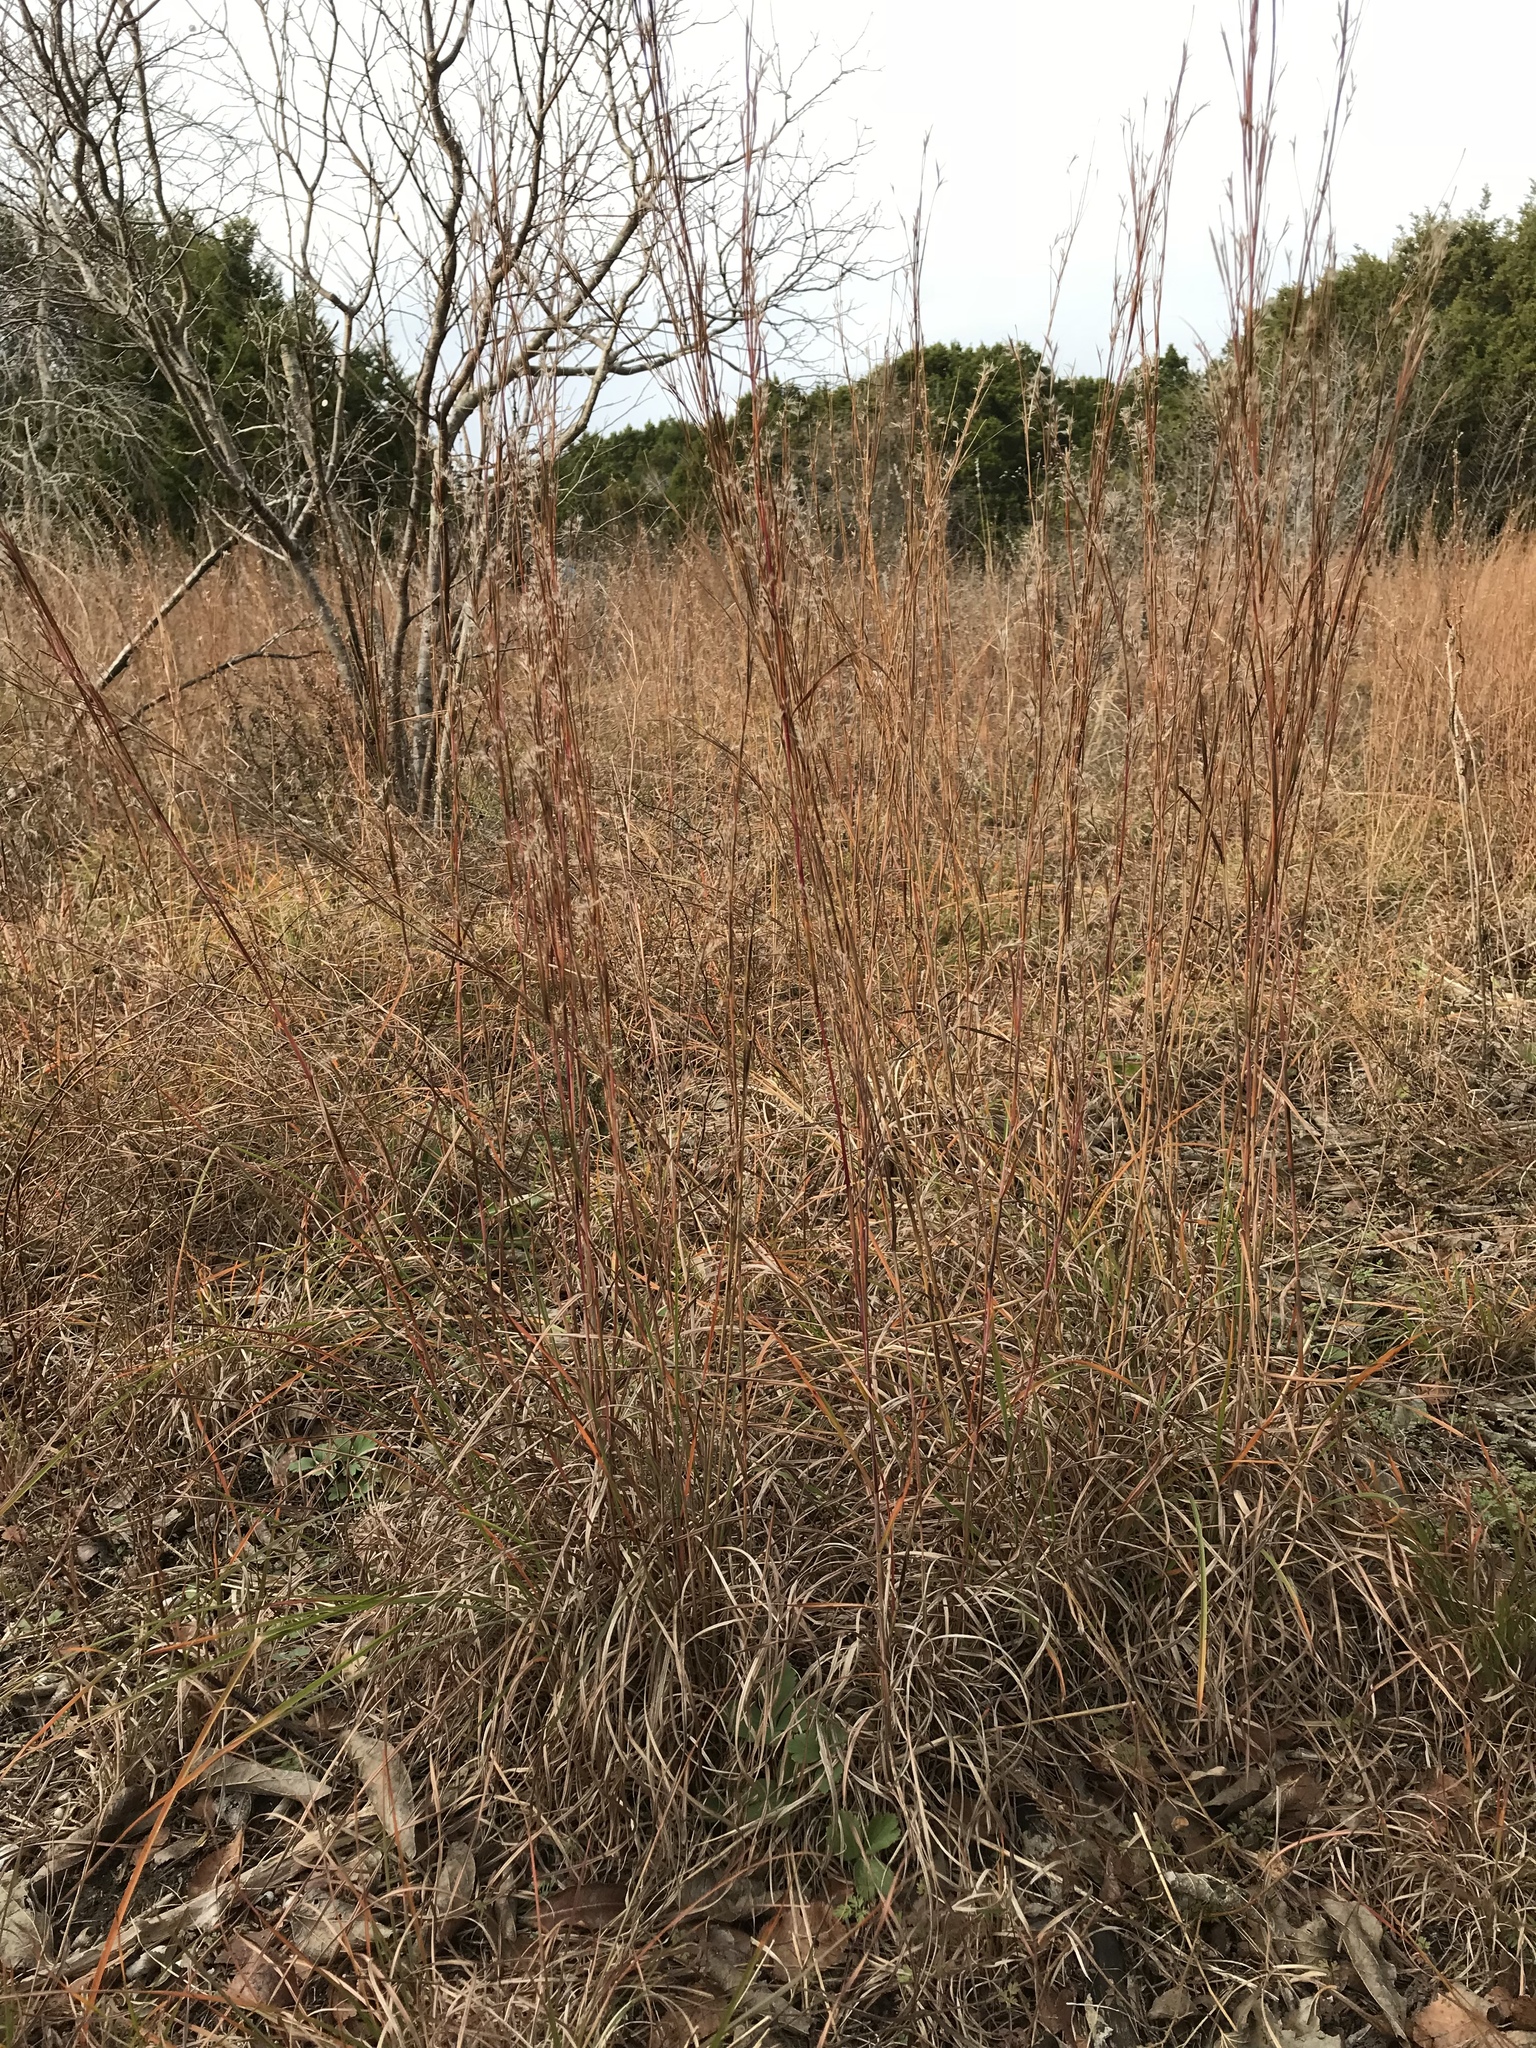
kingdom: Plantae
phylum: Tracheophyta
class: Liliopsida
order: Poales
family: Poaceae
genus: Schizachyrium
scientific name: Schizachyrium scoparium
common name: Little bluestem
